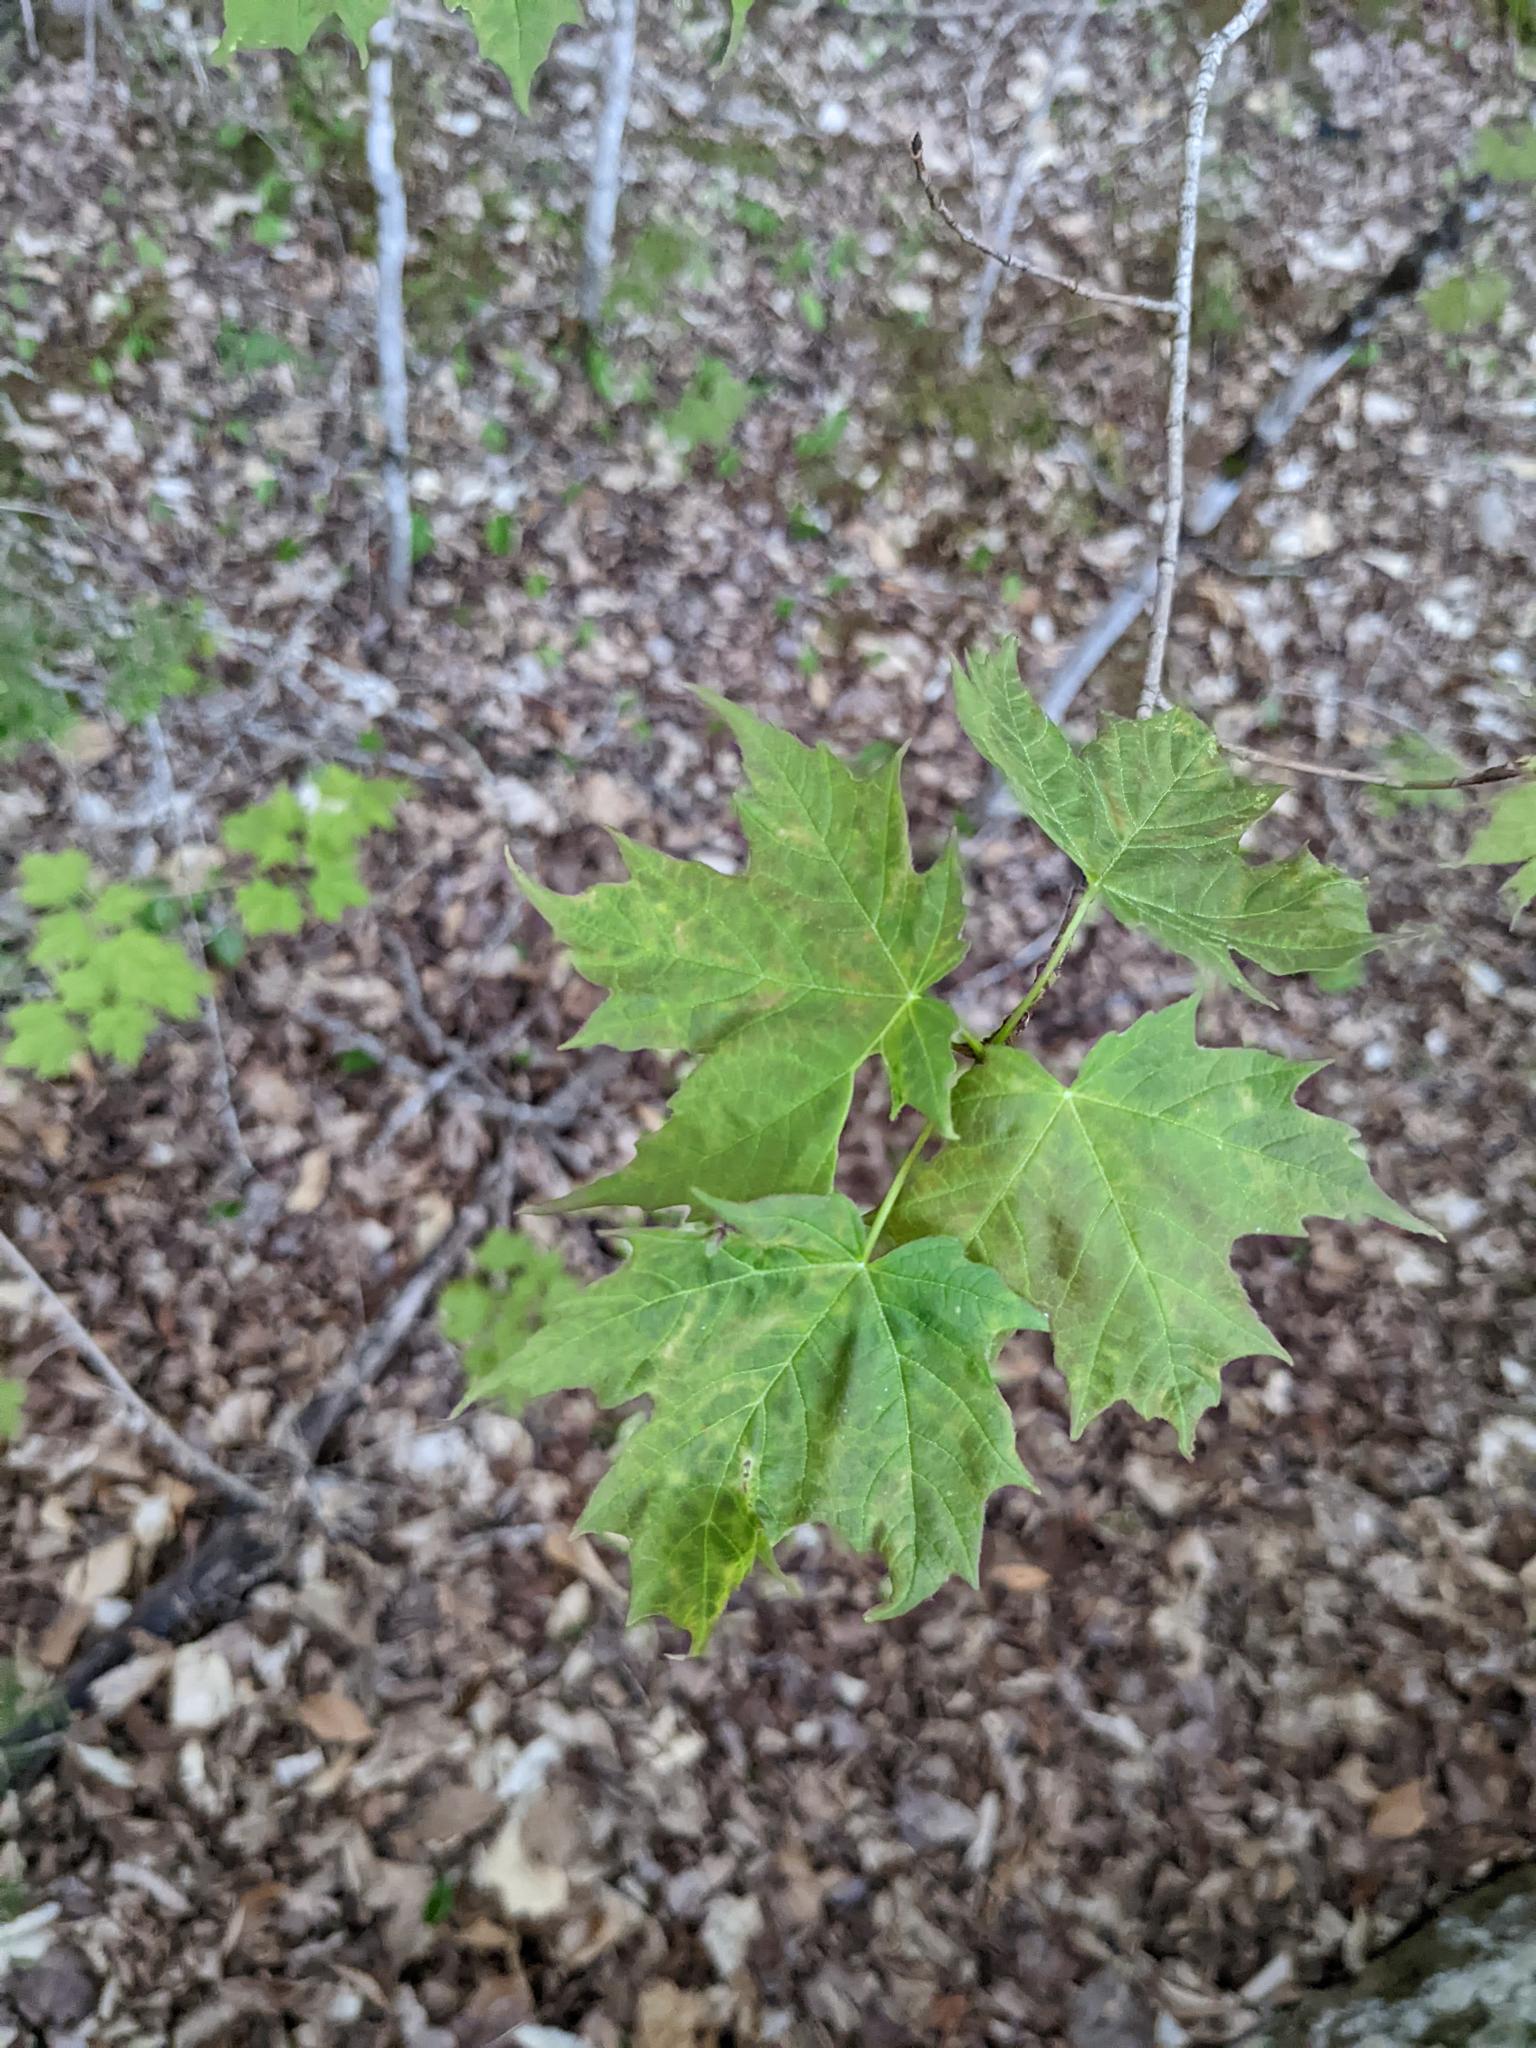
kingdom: Plantae
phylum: Tracheophyta
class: Magnoliopsida
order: Sapindales
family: Sapindaceae
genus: Acer
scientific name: Acer saccharum
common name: Sugar maple
